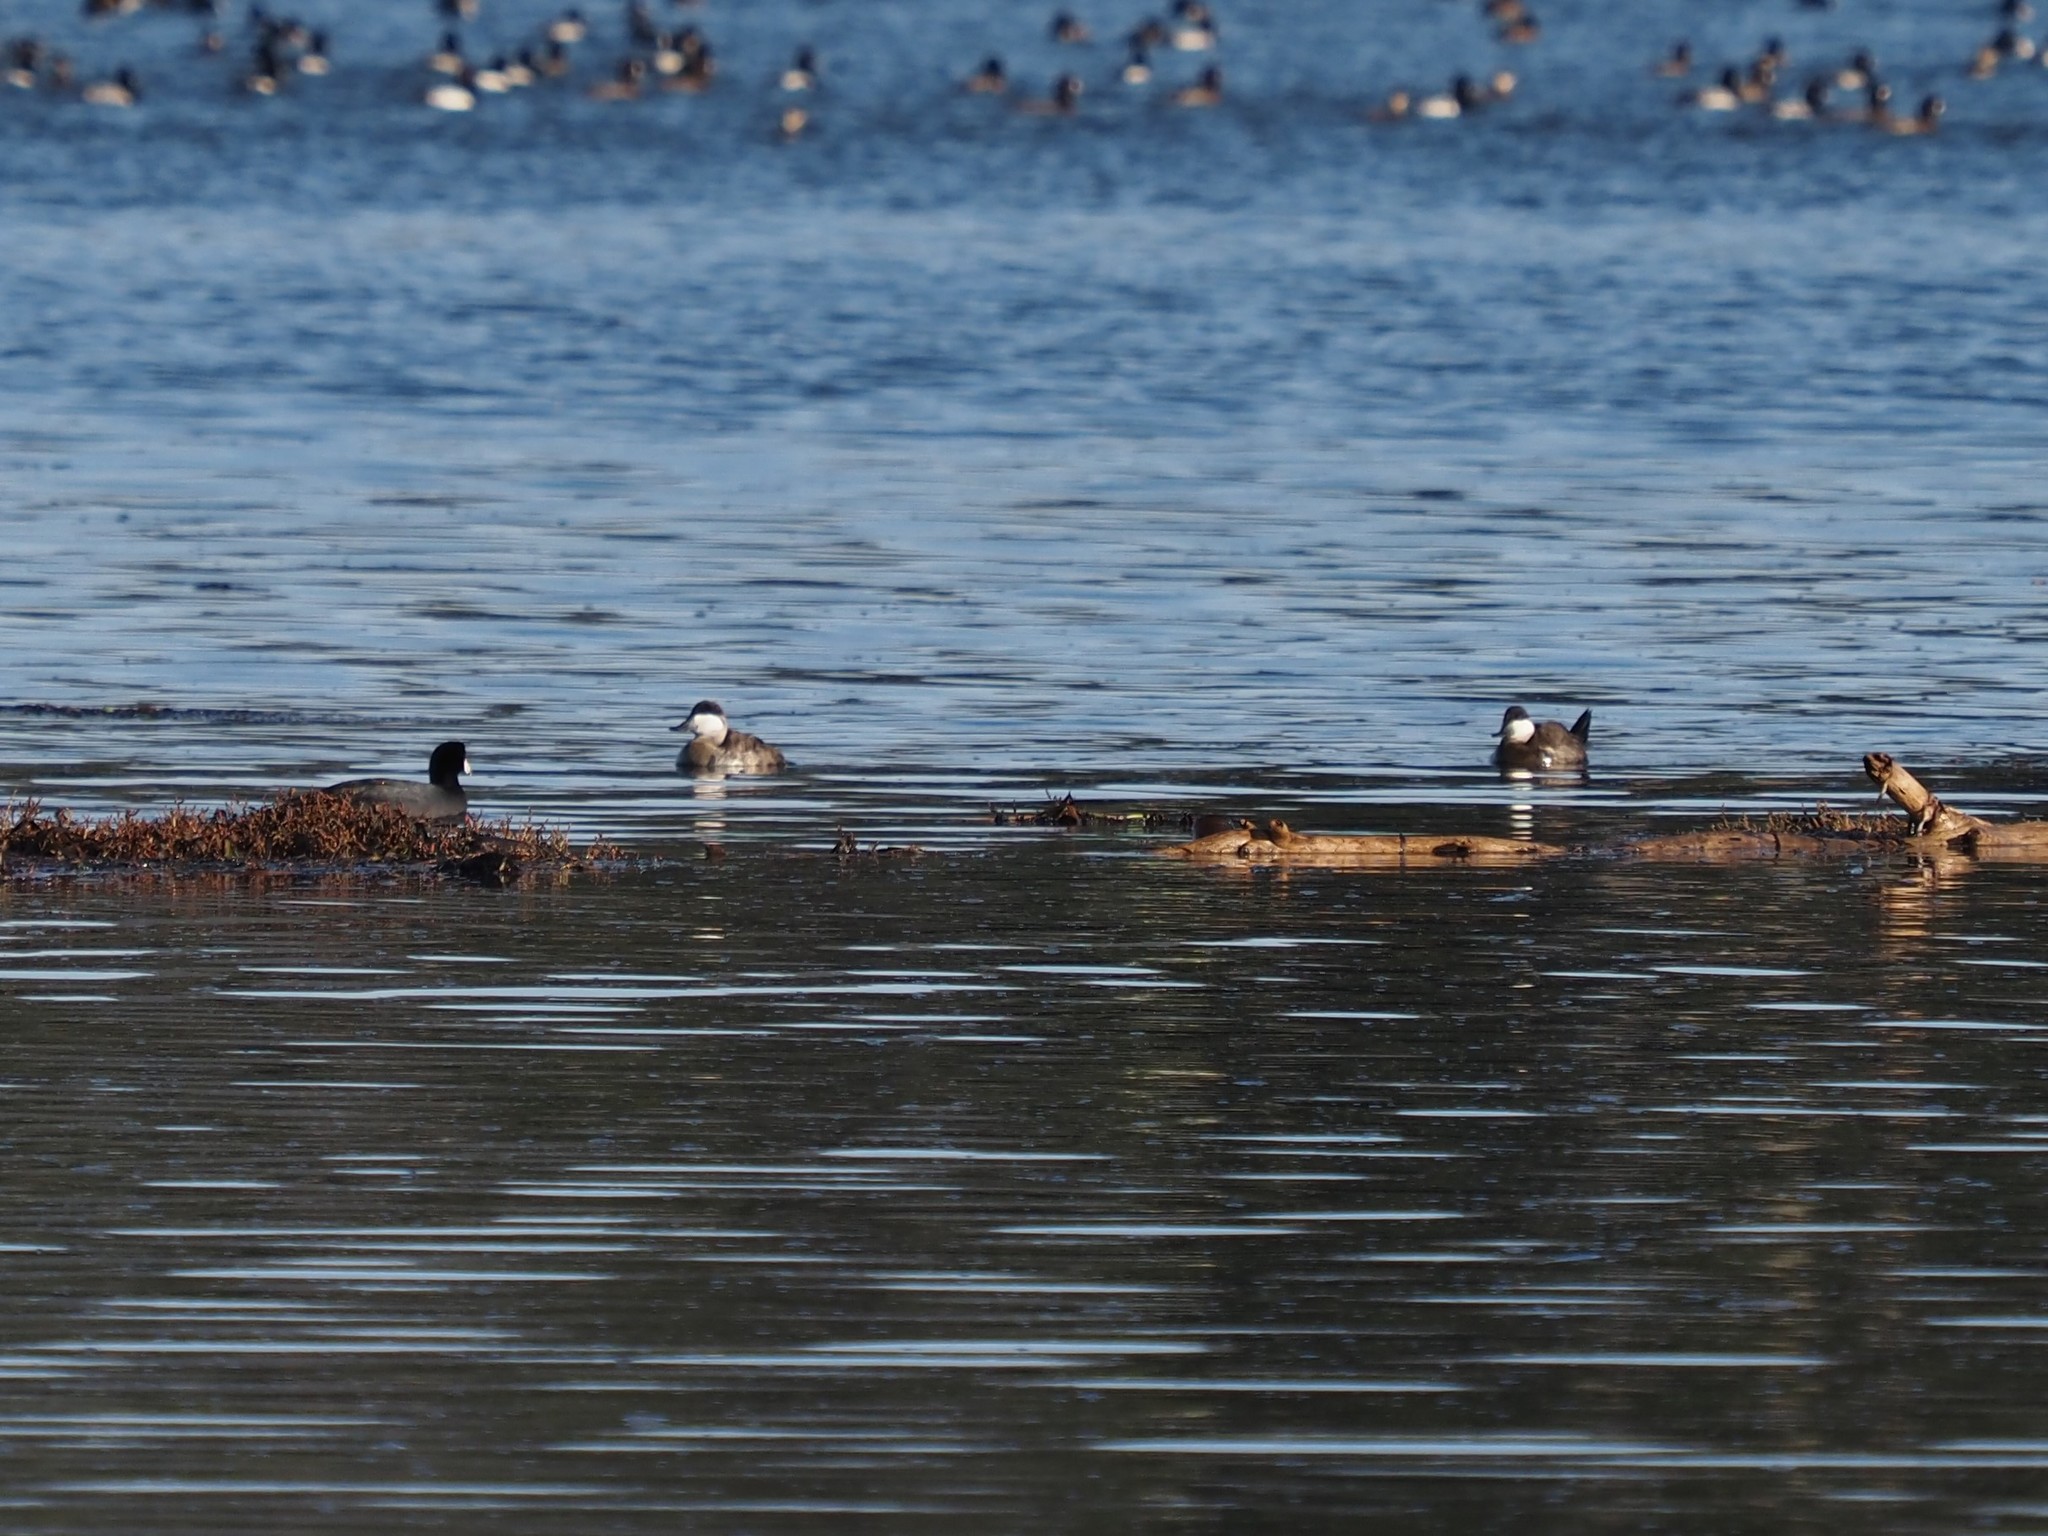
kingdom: Animalia
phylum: Chordata
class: Aves
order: Anseriformes
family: Anatidae
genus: Oxyura
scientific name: Oxyura jamaicensis
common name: Ruddy duck
